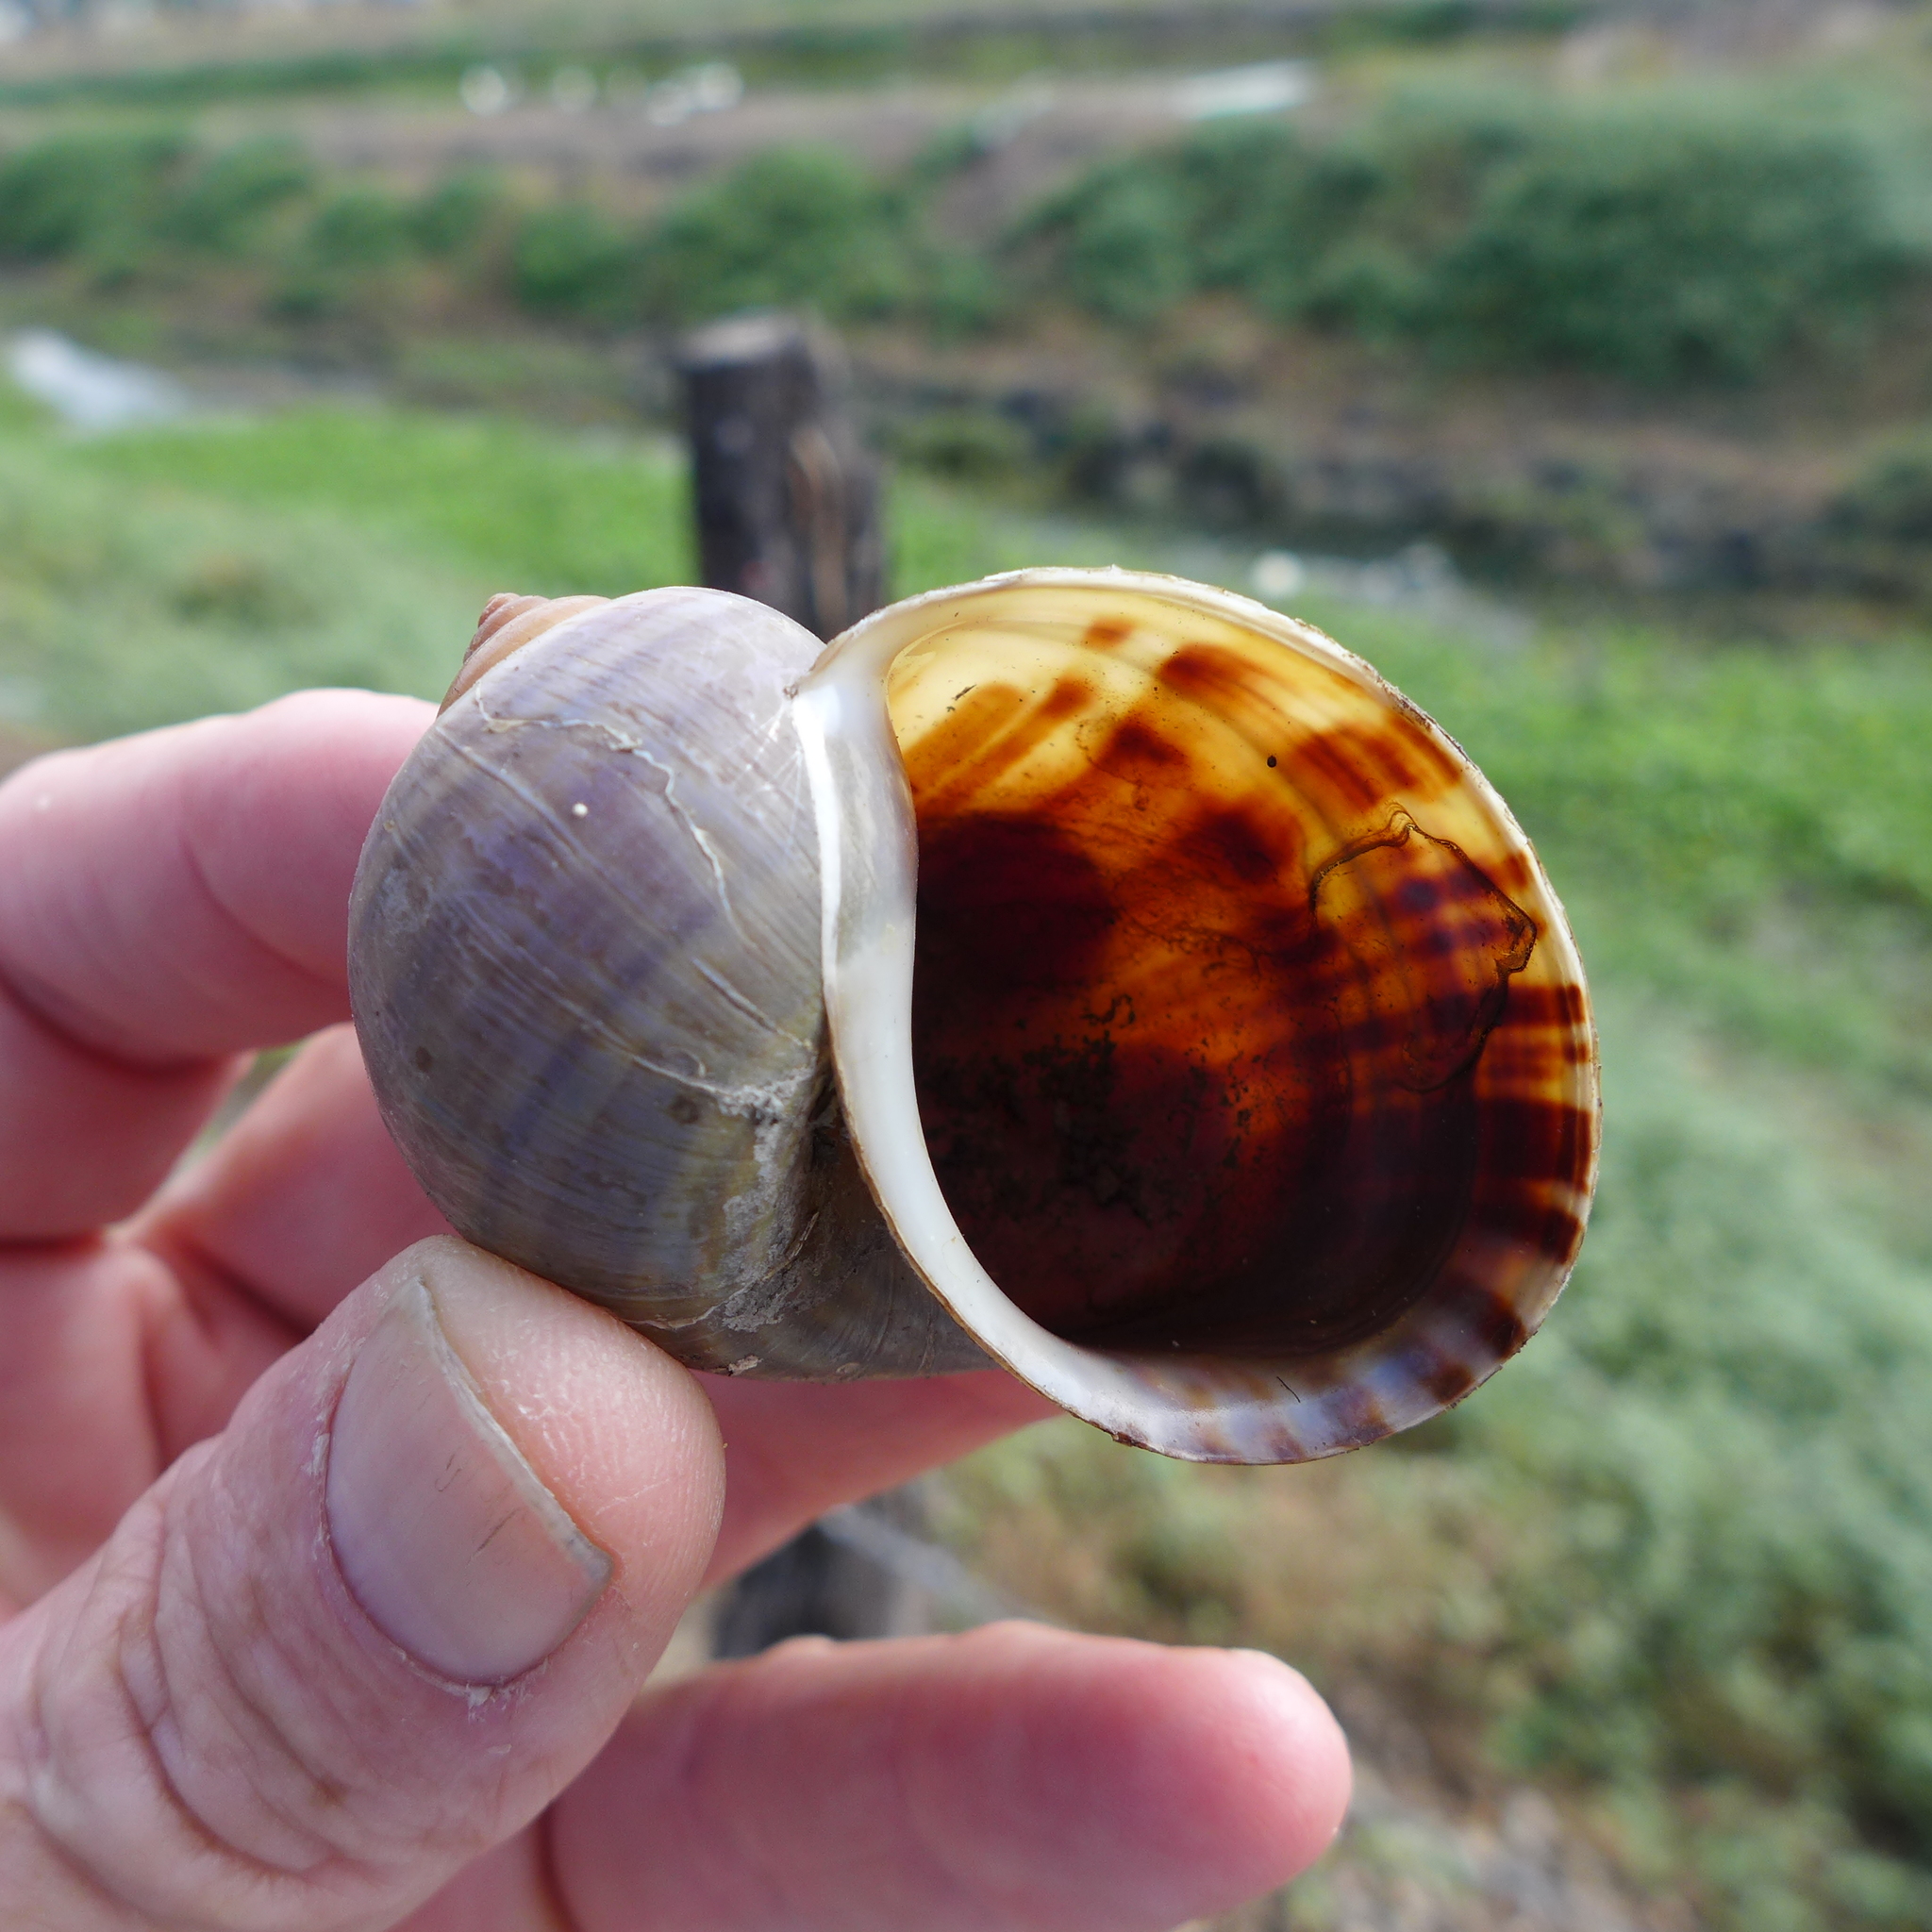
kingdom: Animalia
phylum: Mollusca
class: Gastropoda
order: Architaenioglossa
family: Ampullariidae
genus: Pomacea
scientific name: Pomacea canaliculata
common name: Channeled applesnail
